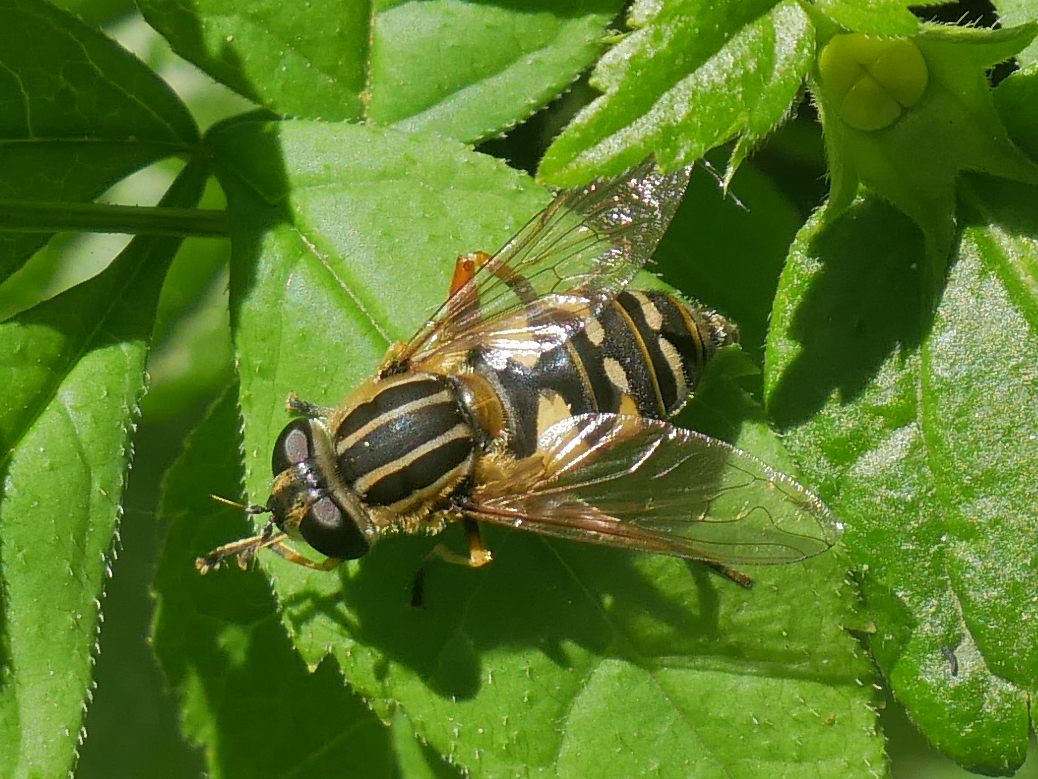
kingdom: Animalia
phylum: Arthropoda
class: Insecta
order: Diptera
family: Syrphidae
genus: Helophilus
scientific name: Helophilus pendulus
